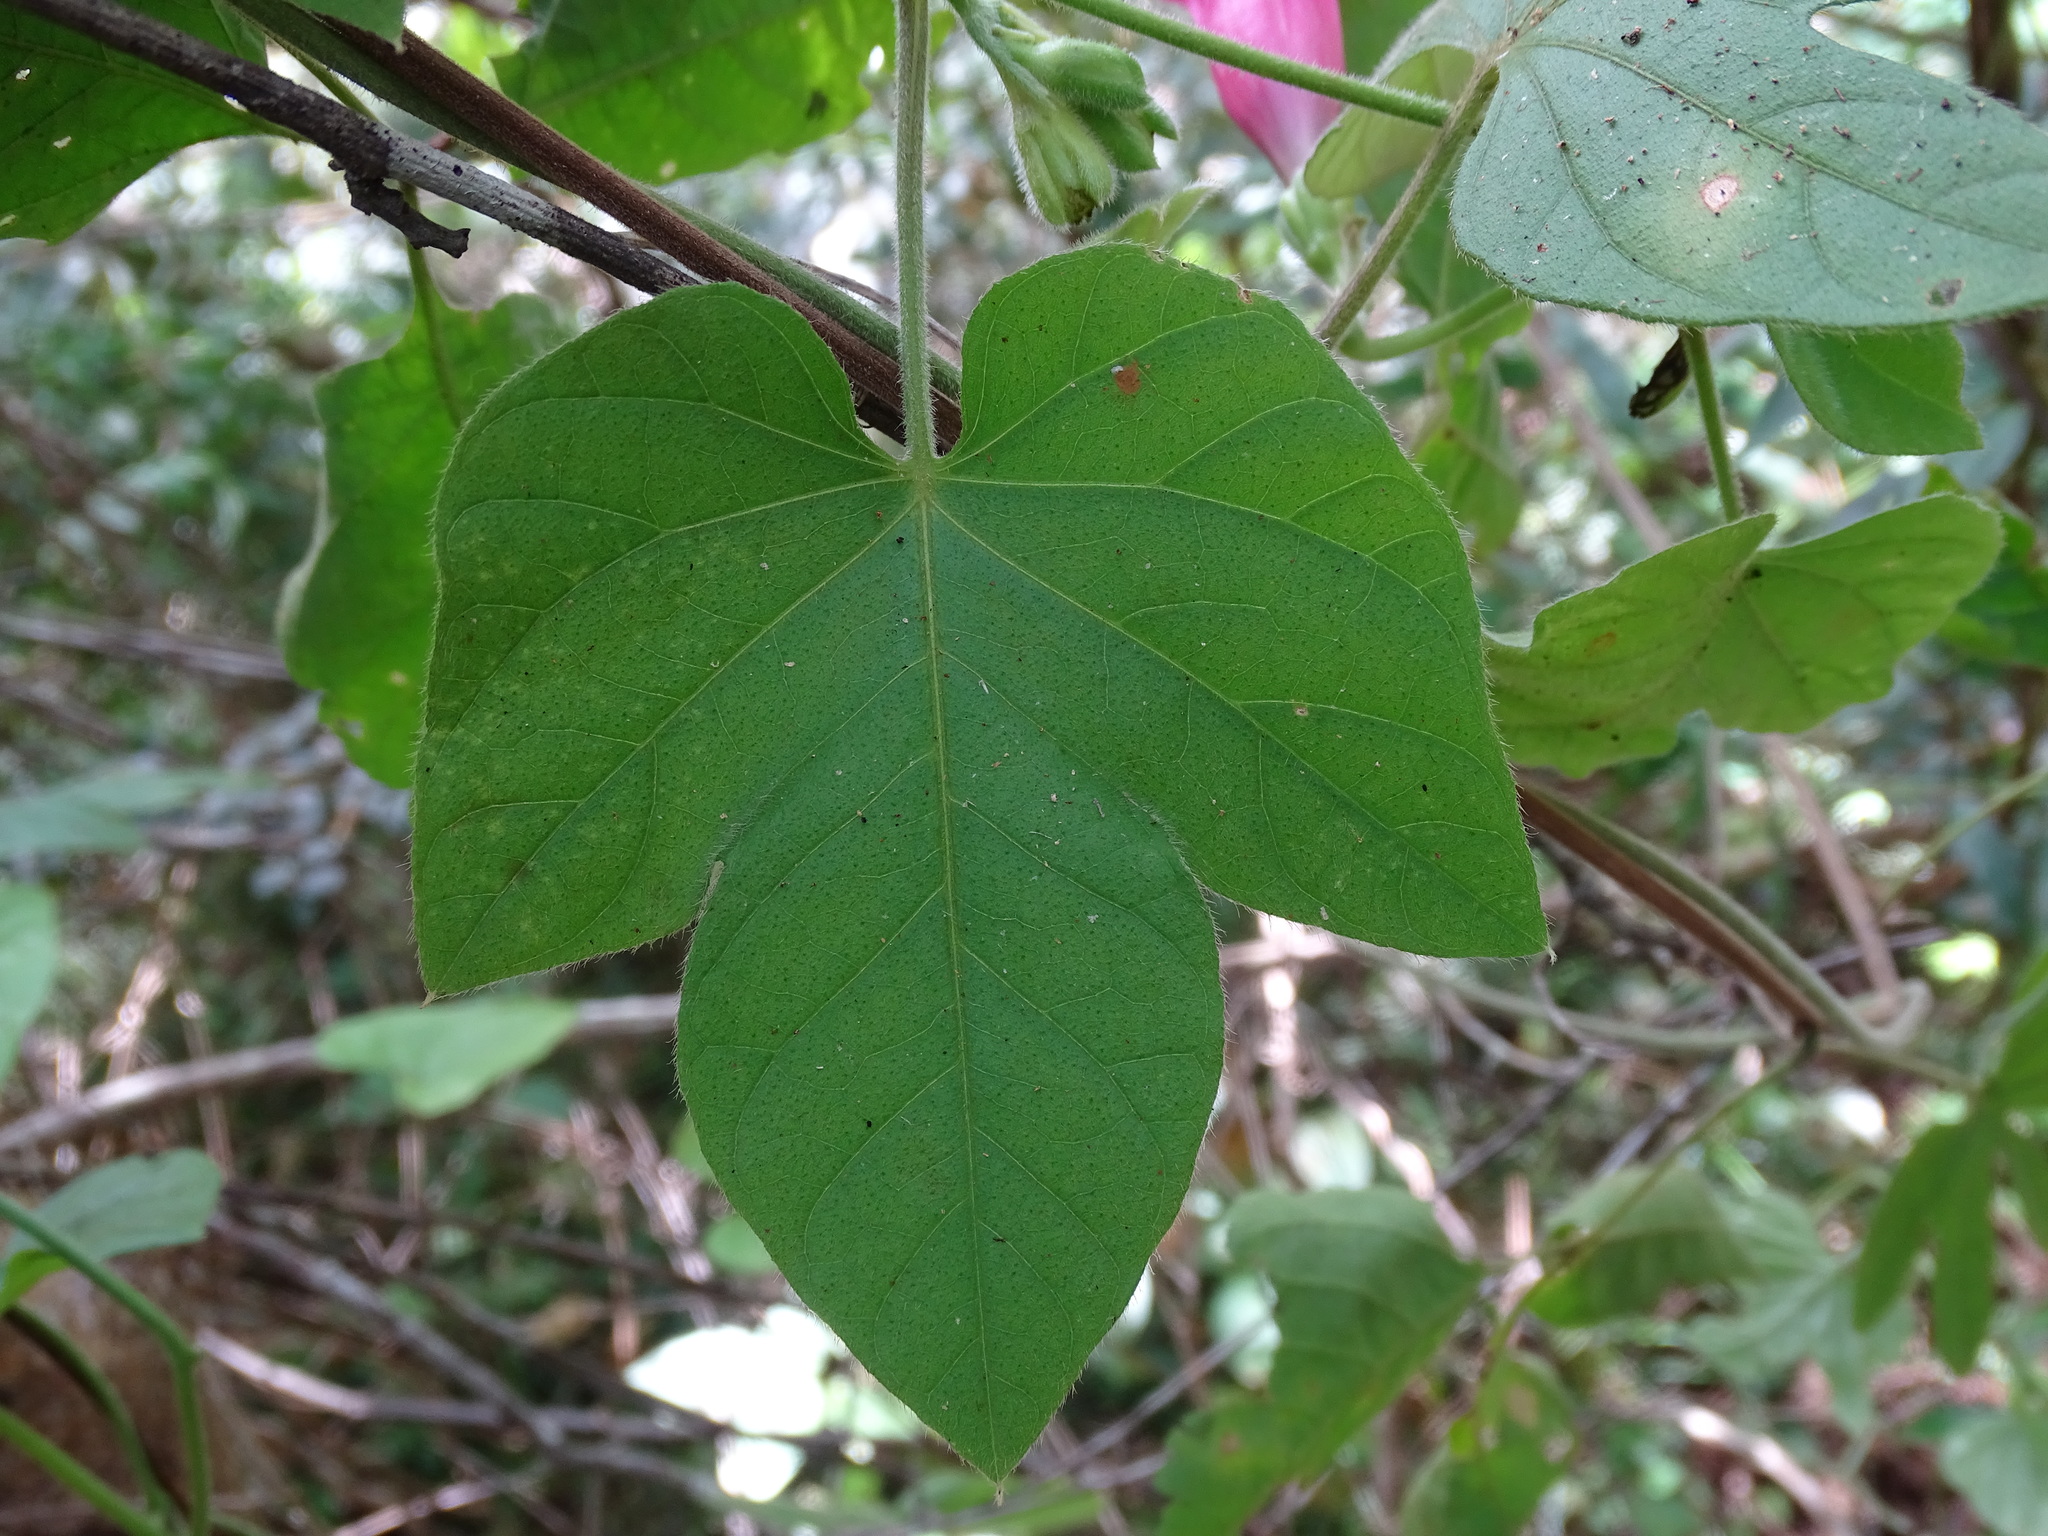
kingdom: Plantae
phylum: Tracheophyta
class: Magnoliopsida
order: Solanales
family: Convolvulaceae
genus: Ipomoea
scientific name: Ipomoea peteri
